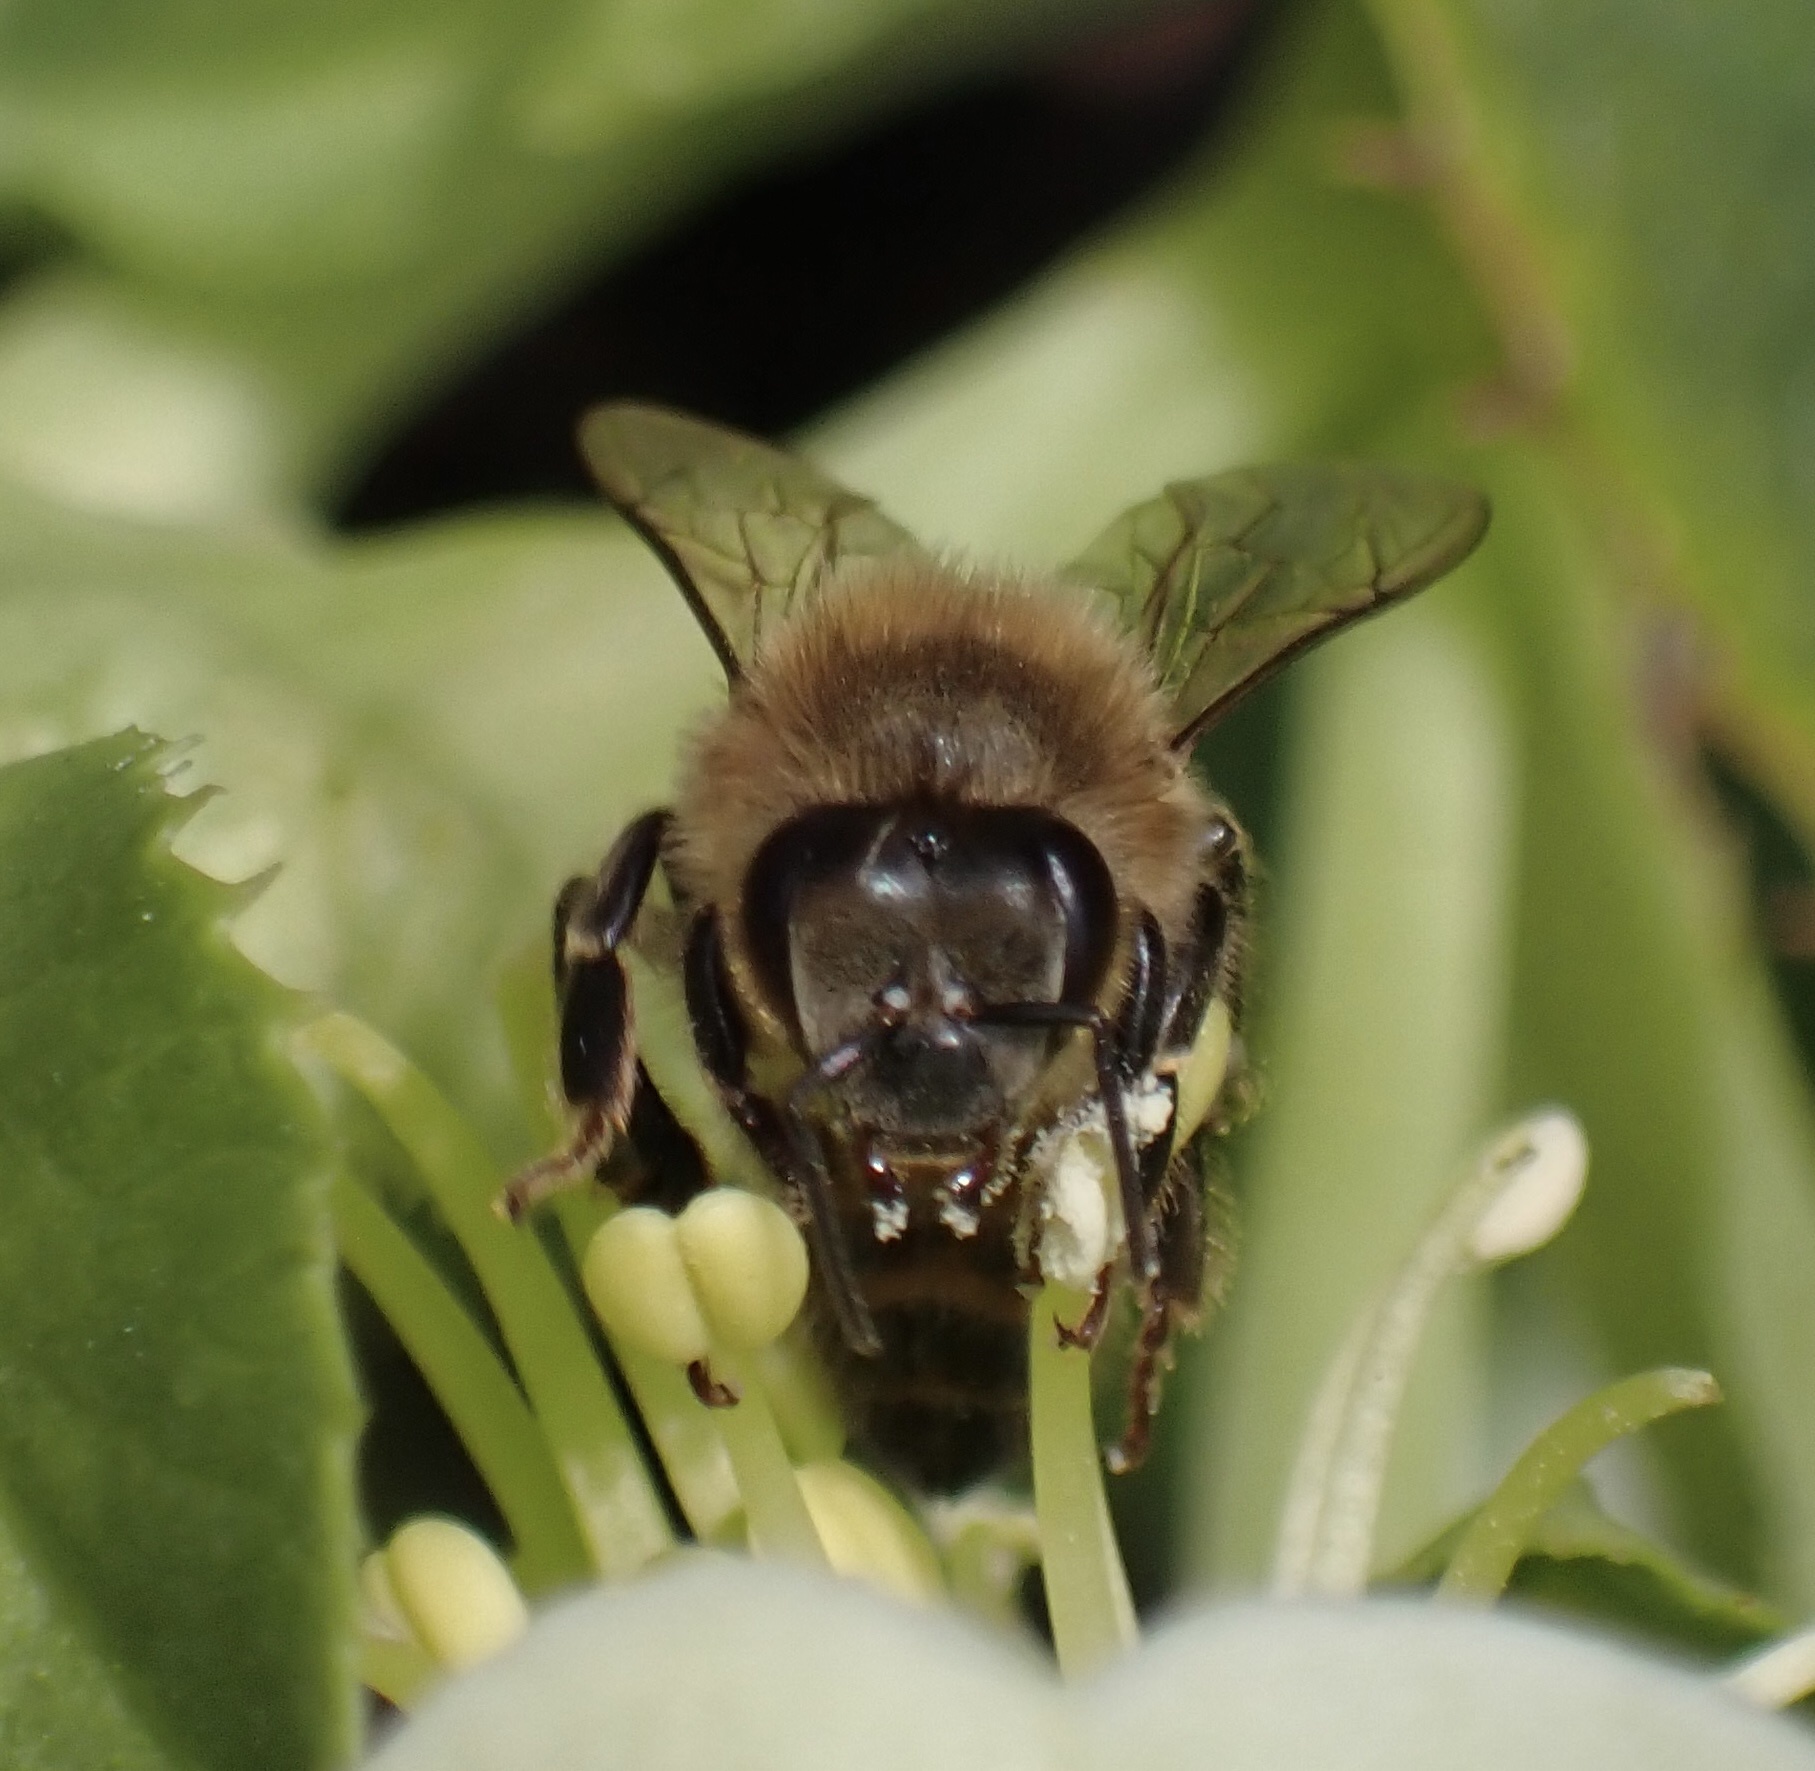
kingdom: Animalia
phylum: Arthropoda
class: Insecta
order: Hymenoptera
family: Apidae
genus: Apis
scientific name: Apis mellifera
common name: Honey bee
